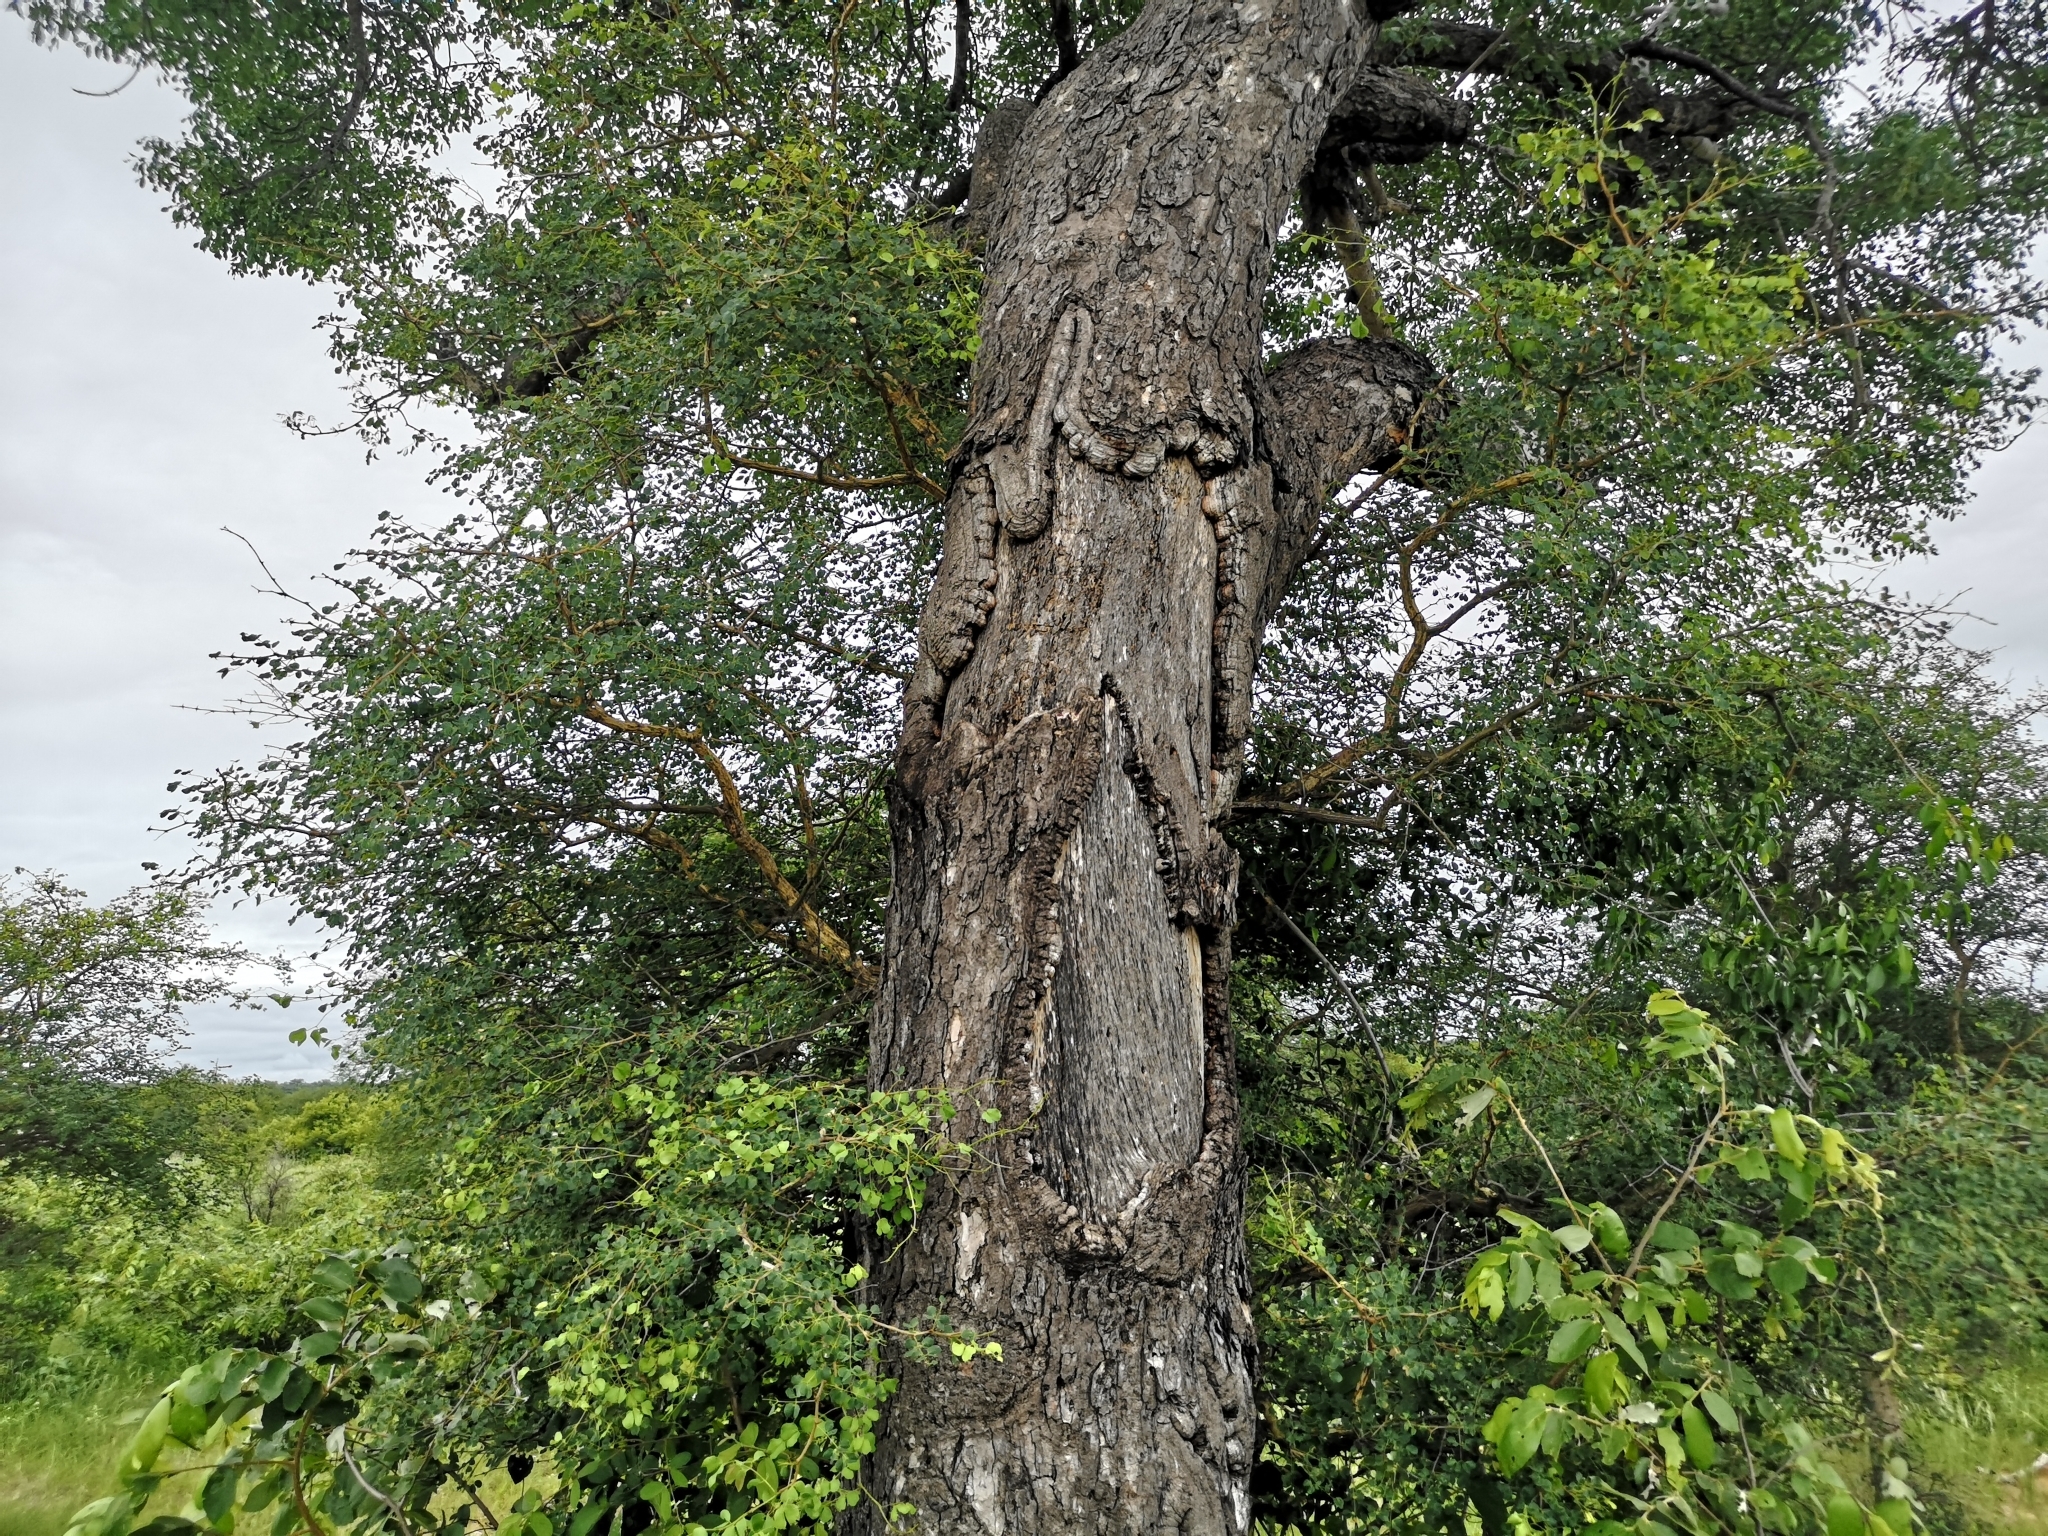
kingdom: Plantae
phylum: Tracheophyta
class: Magnoliopsida
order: Sapindales
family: Anacardiaceae
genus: Sclerocarya
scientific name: Sclerocarya birrea
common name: Marula
